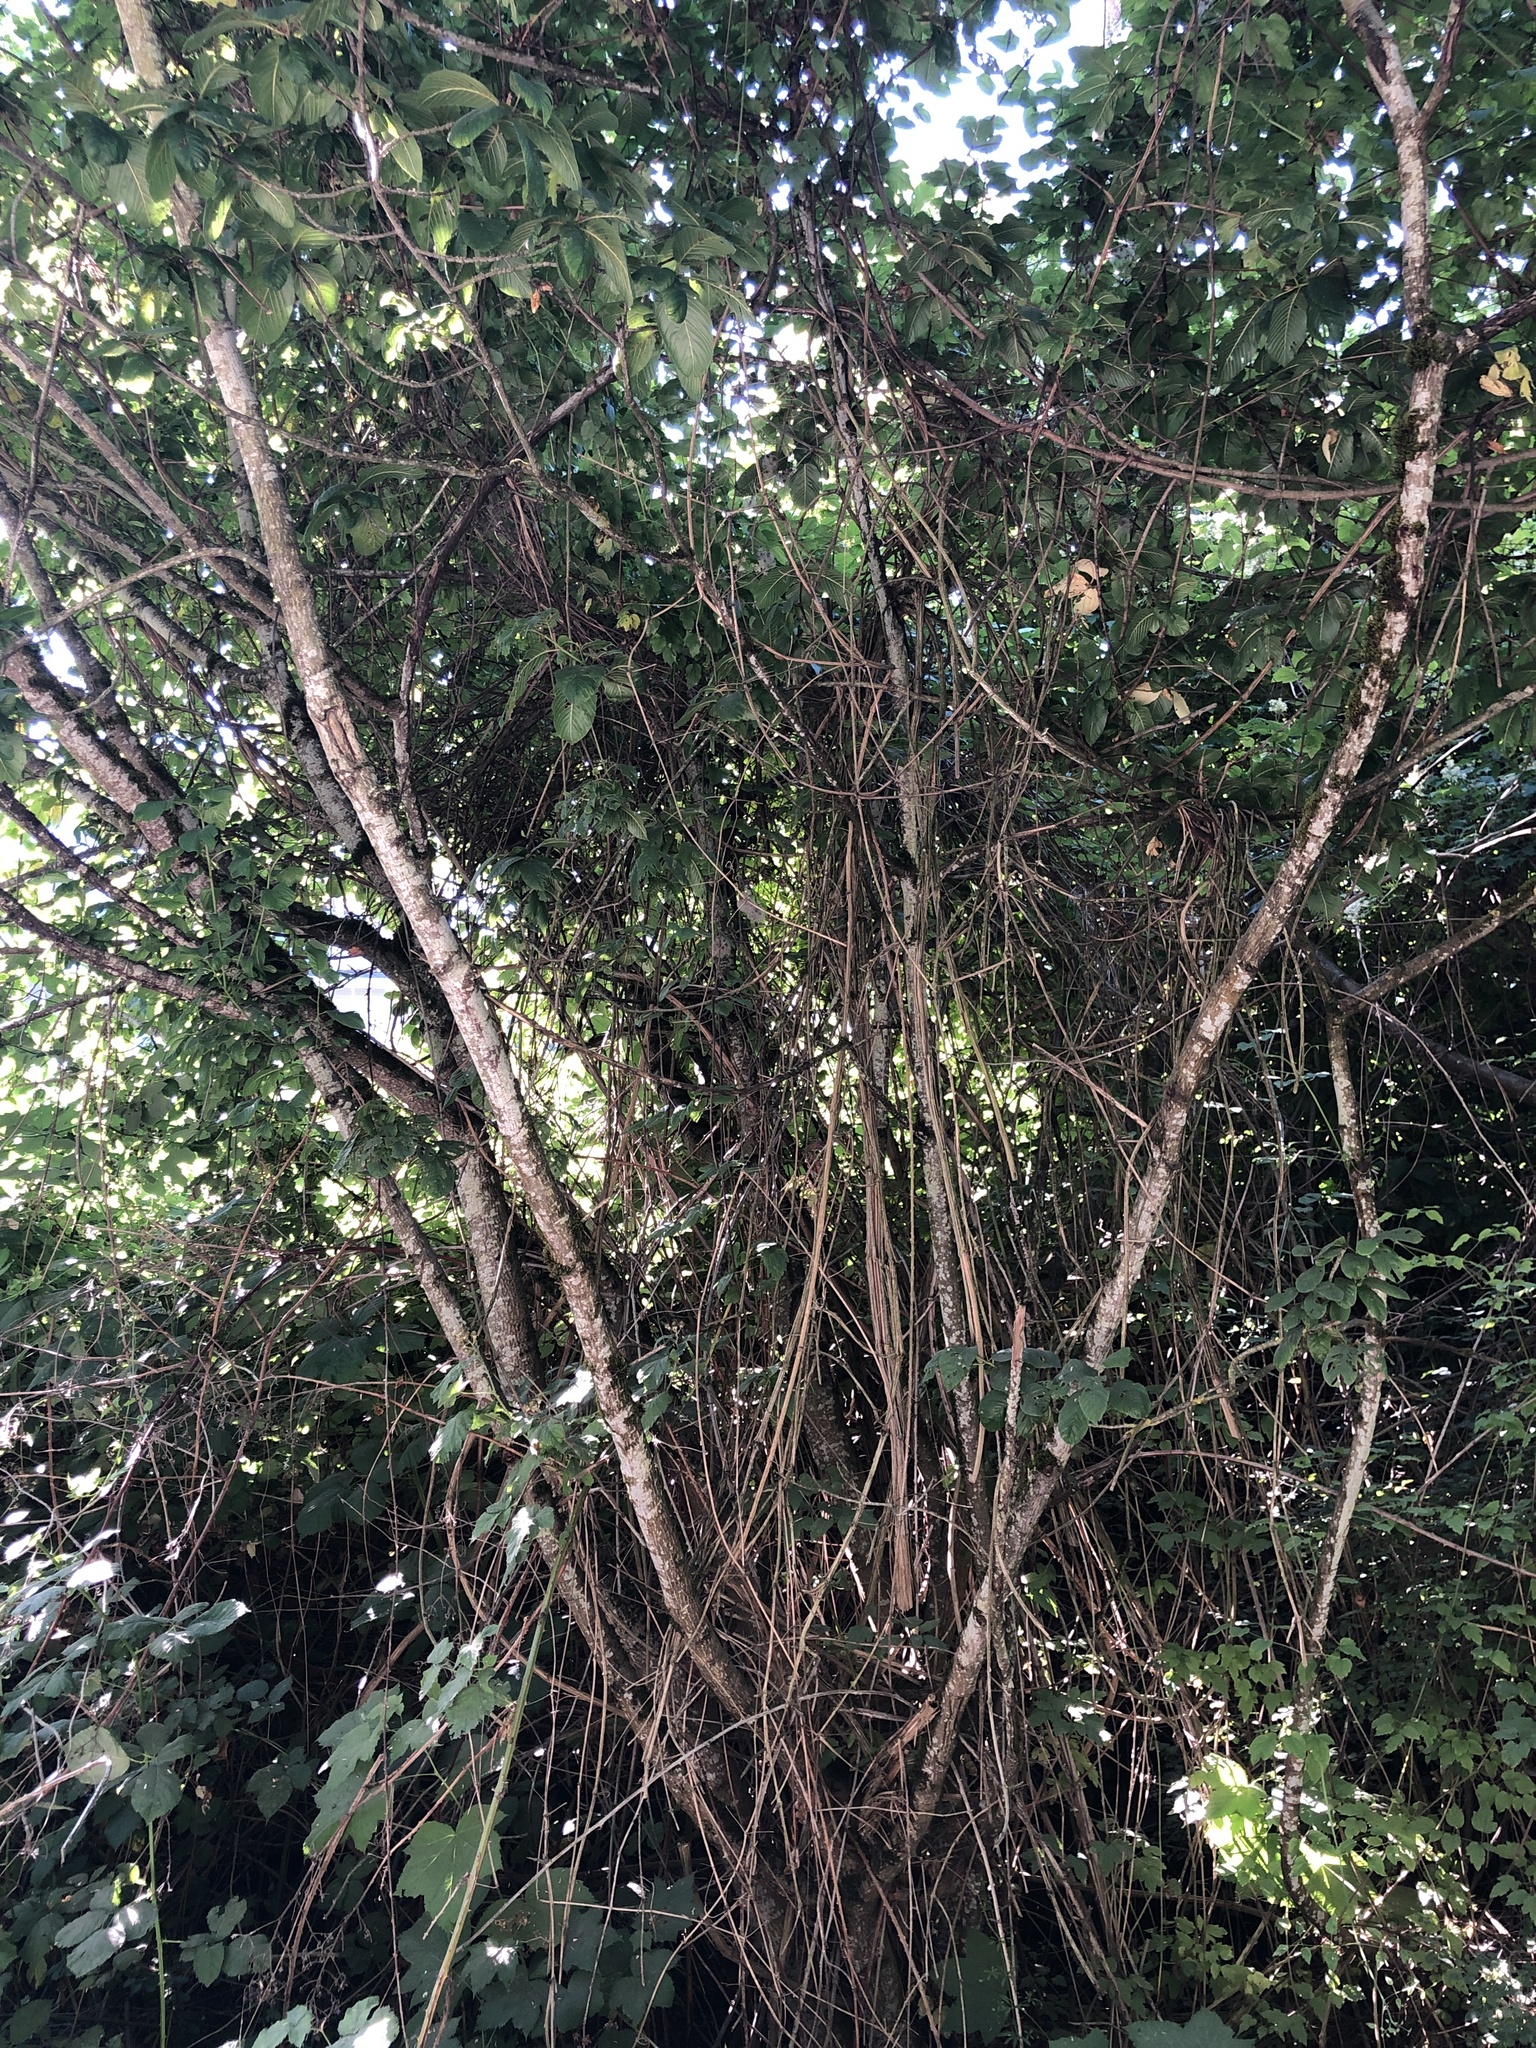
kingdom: Plantae
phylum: Tracheophyta
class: Magnoliopsida
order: Rosales
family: Rhamnaceae
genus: Frangula
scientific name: Frangula purshiana
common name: Cascara buckthorn
